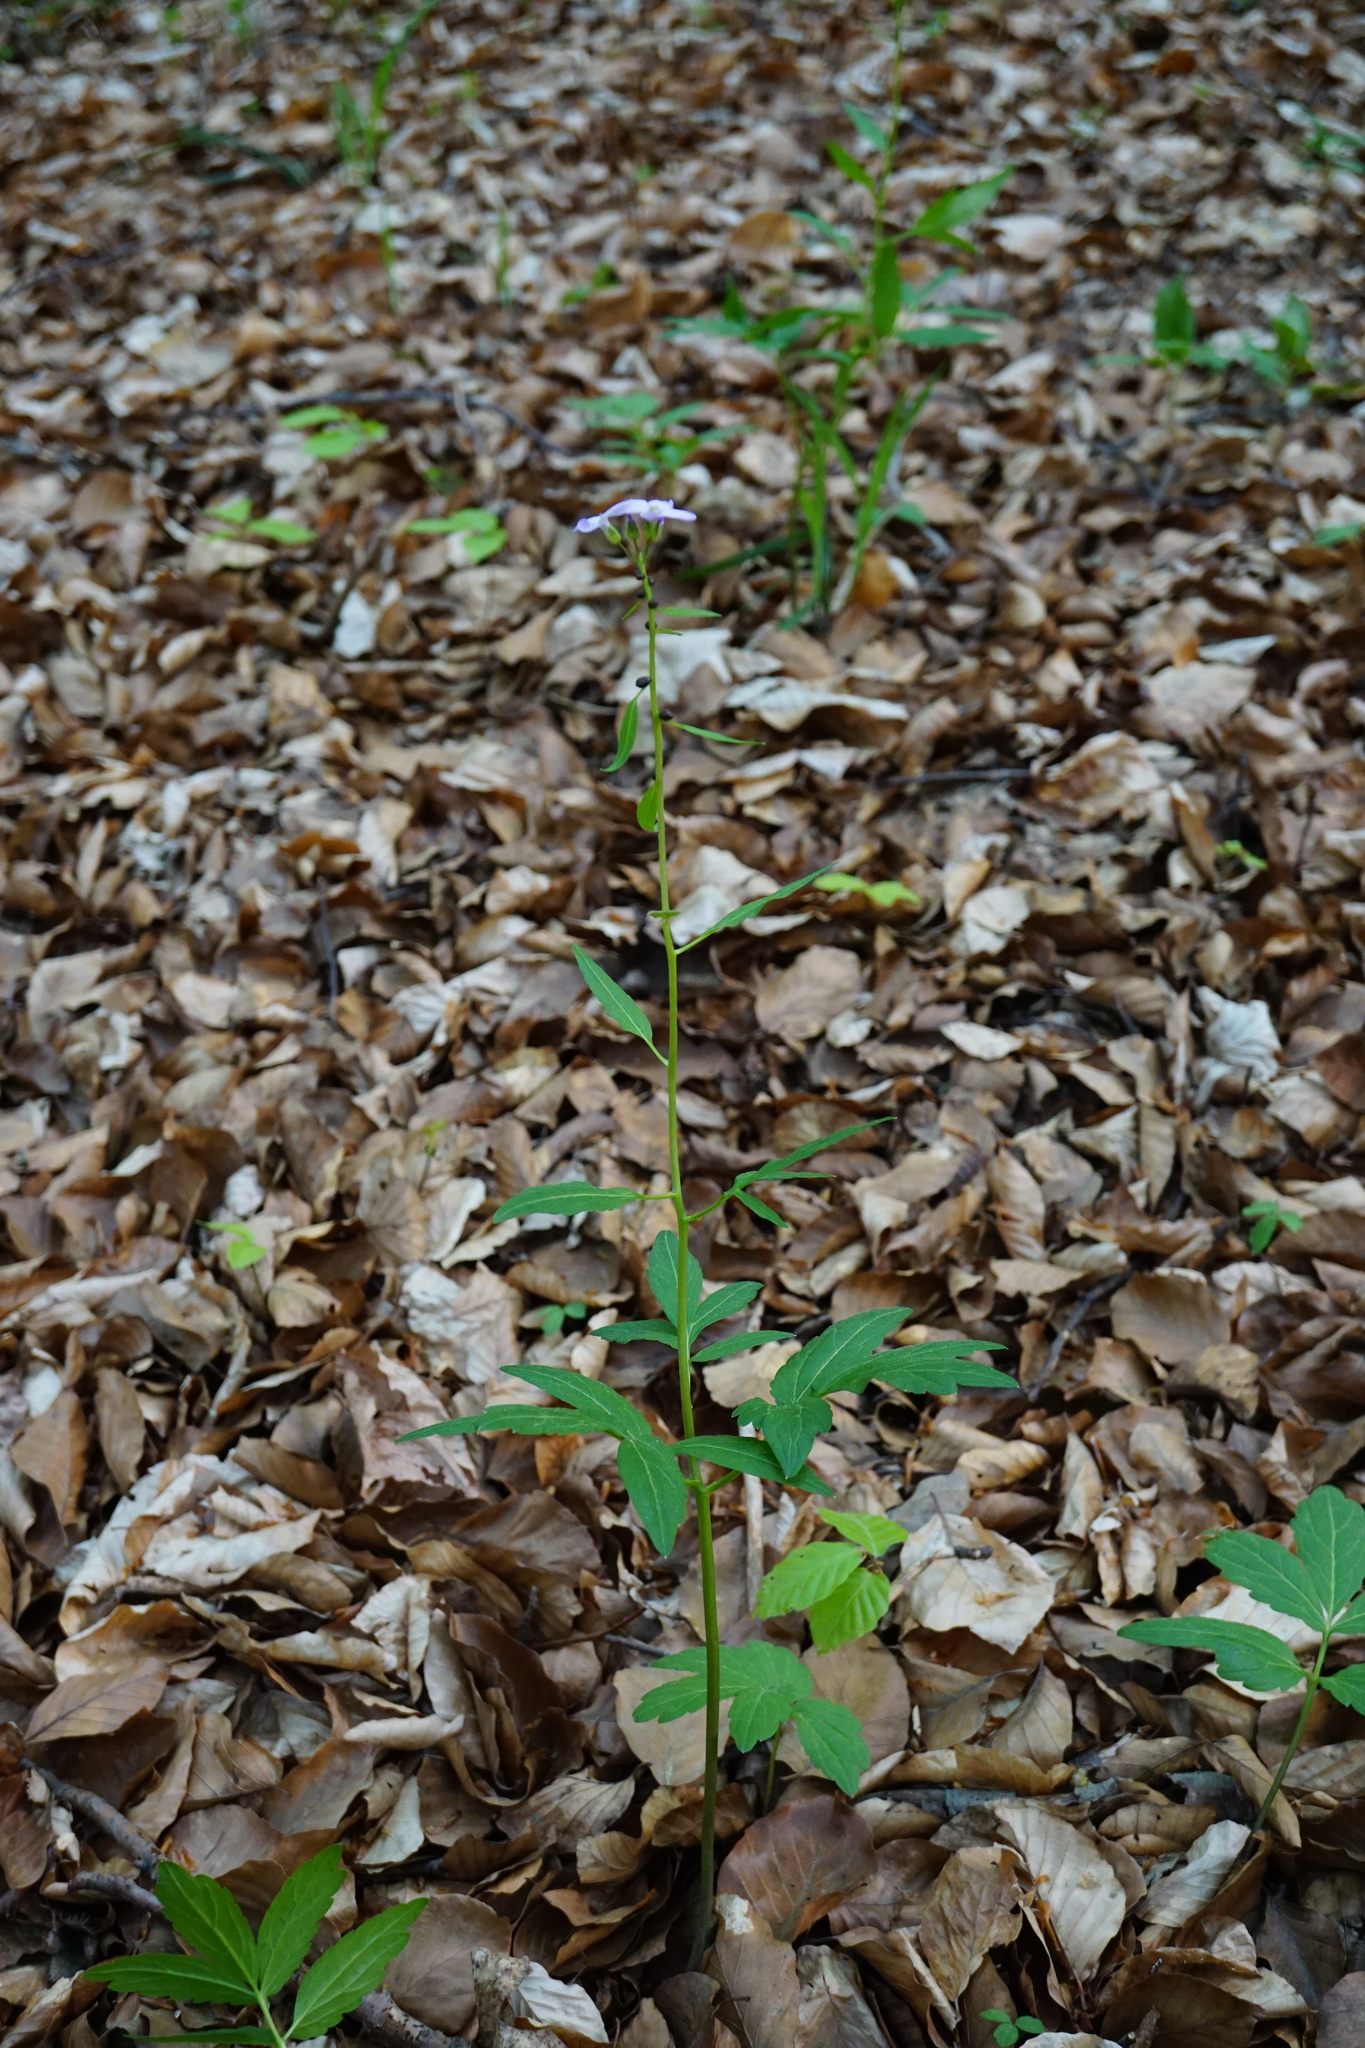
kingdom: Plantae
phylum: Tracheophyta
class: Magnoliopsida
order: Brassicales
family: Brassicaceae
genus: Cardamine
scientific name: Cardamine bulbifera
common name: Coralroot bittercress
